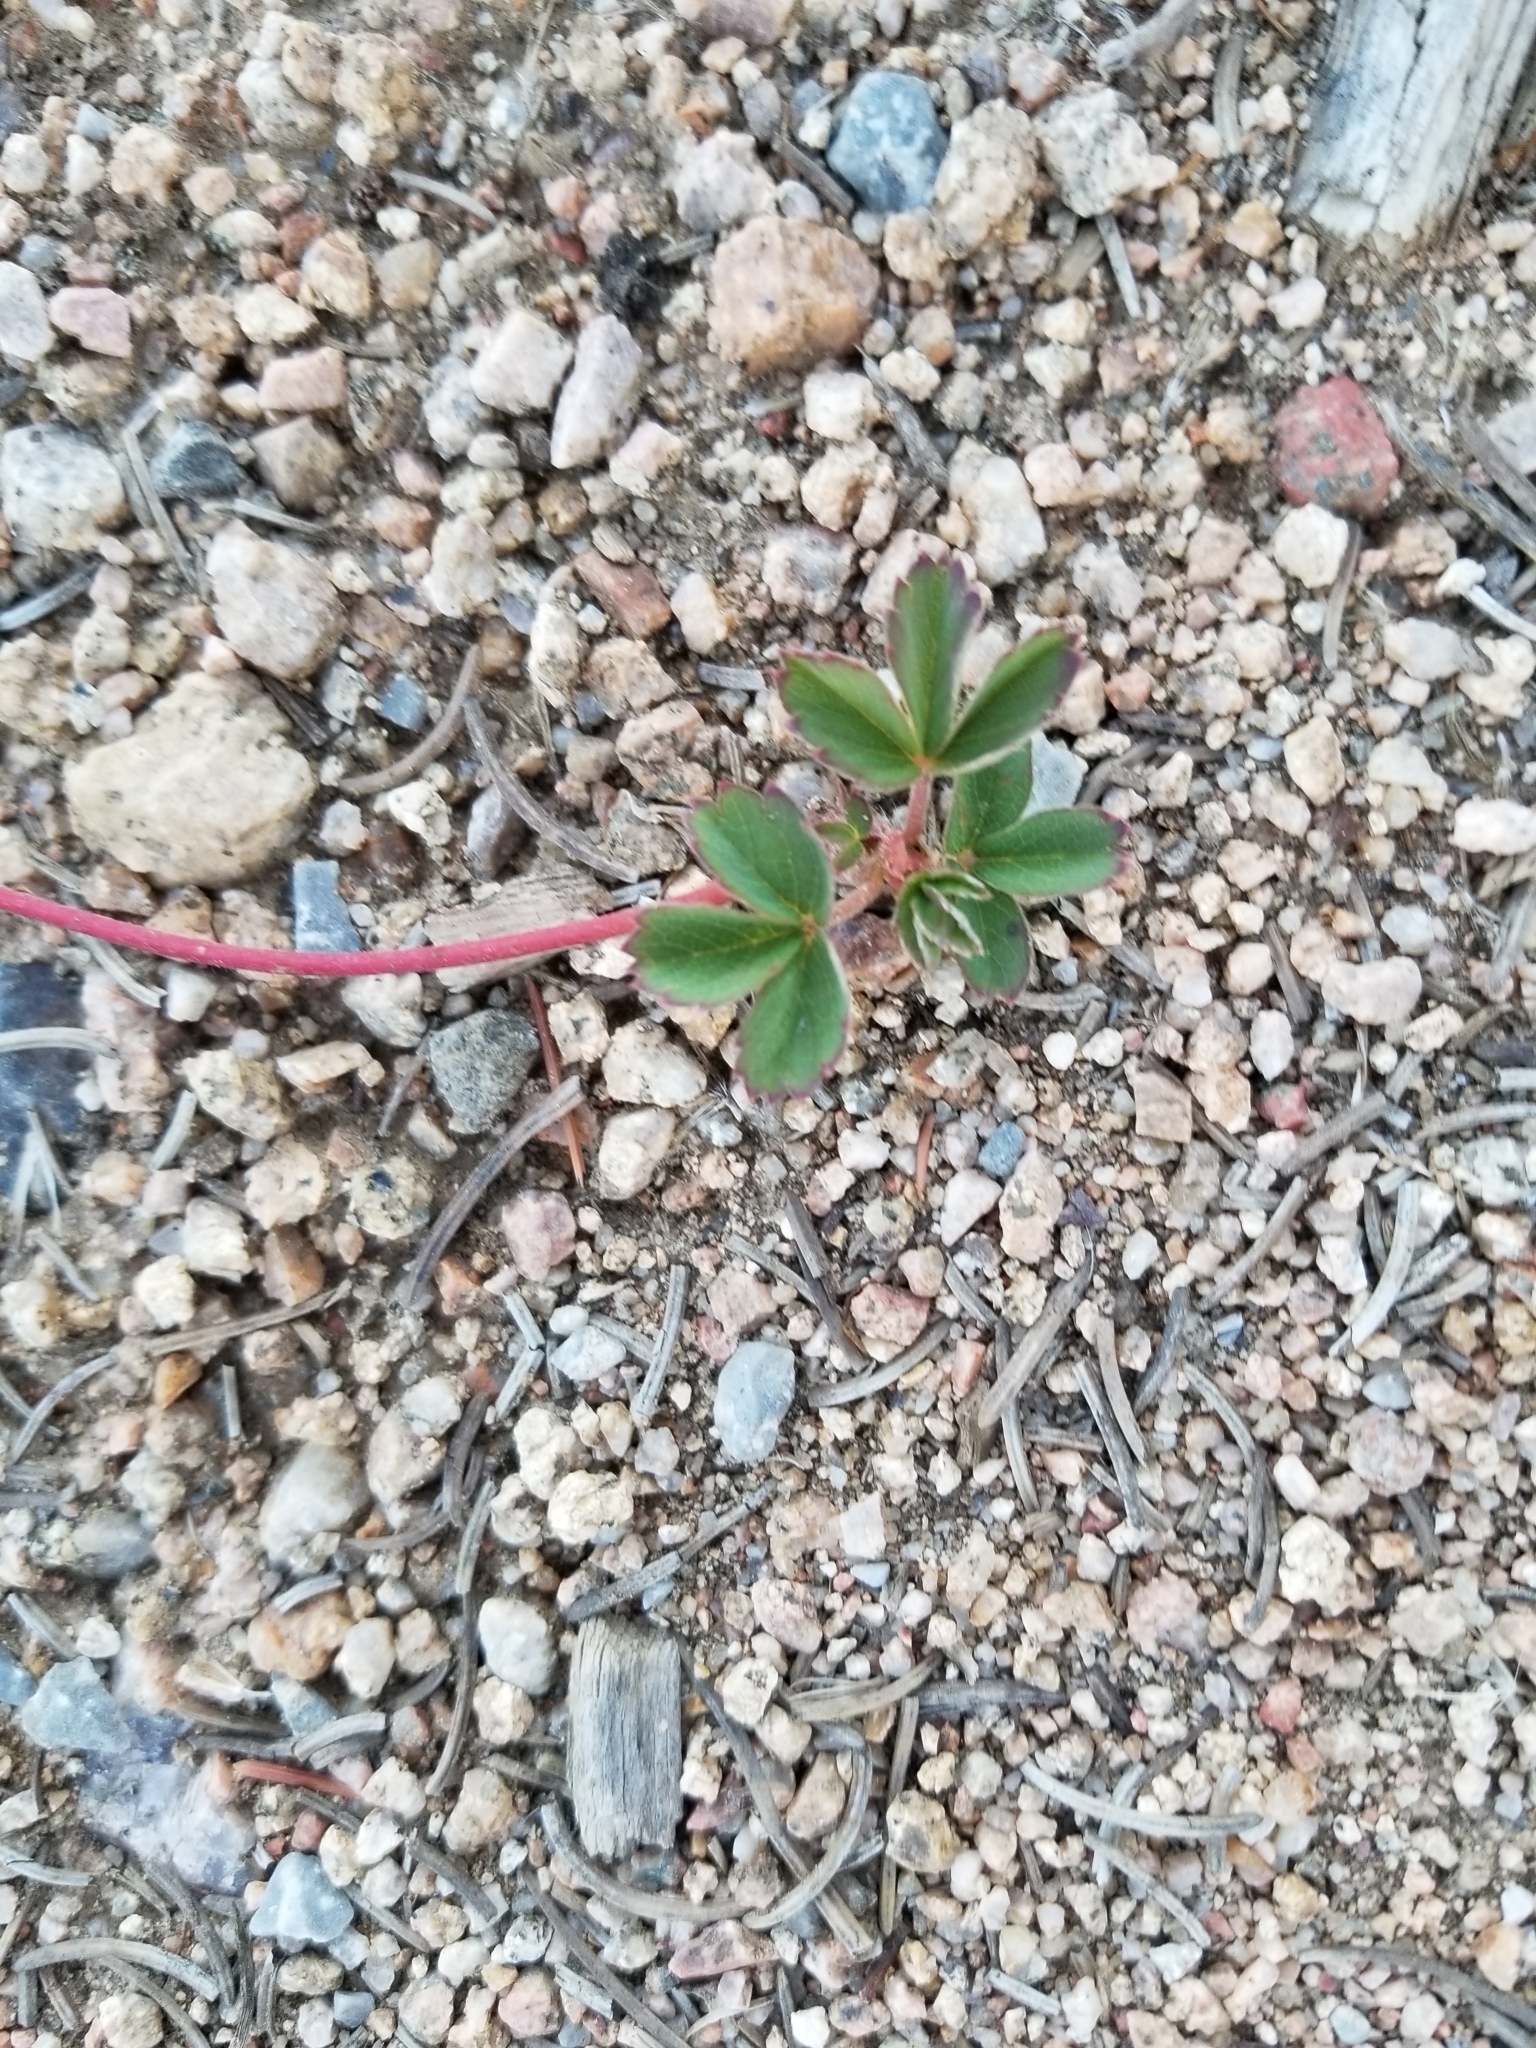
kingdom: Plantae
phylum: Tracheophyta
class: Magnoliopsida
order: Rosales
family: Rosaceae
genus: Fragaria
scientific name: Fragaria virginiana
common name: Thickleaved wild strawberry
